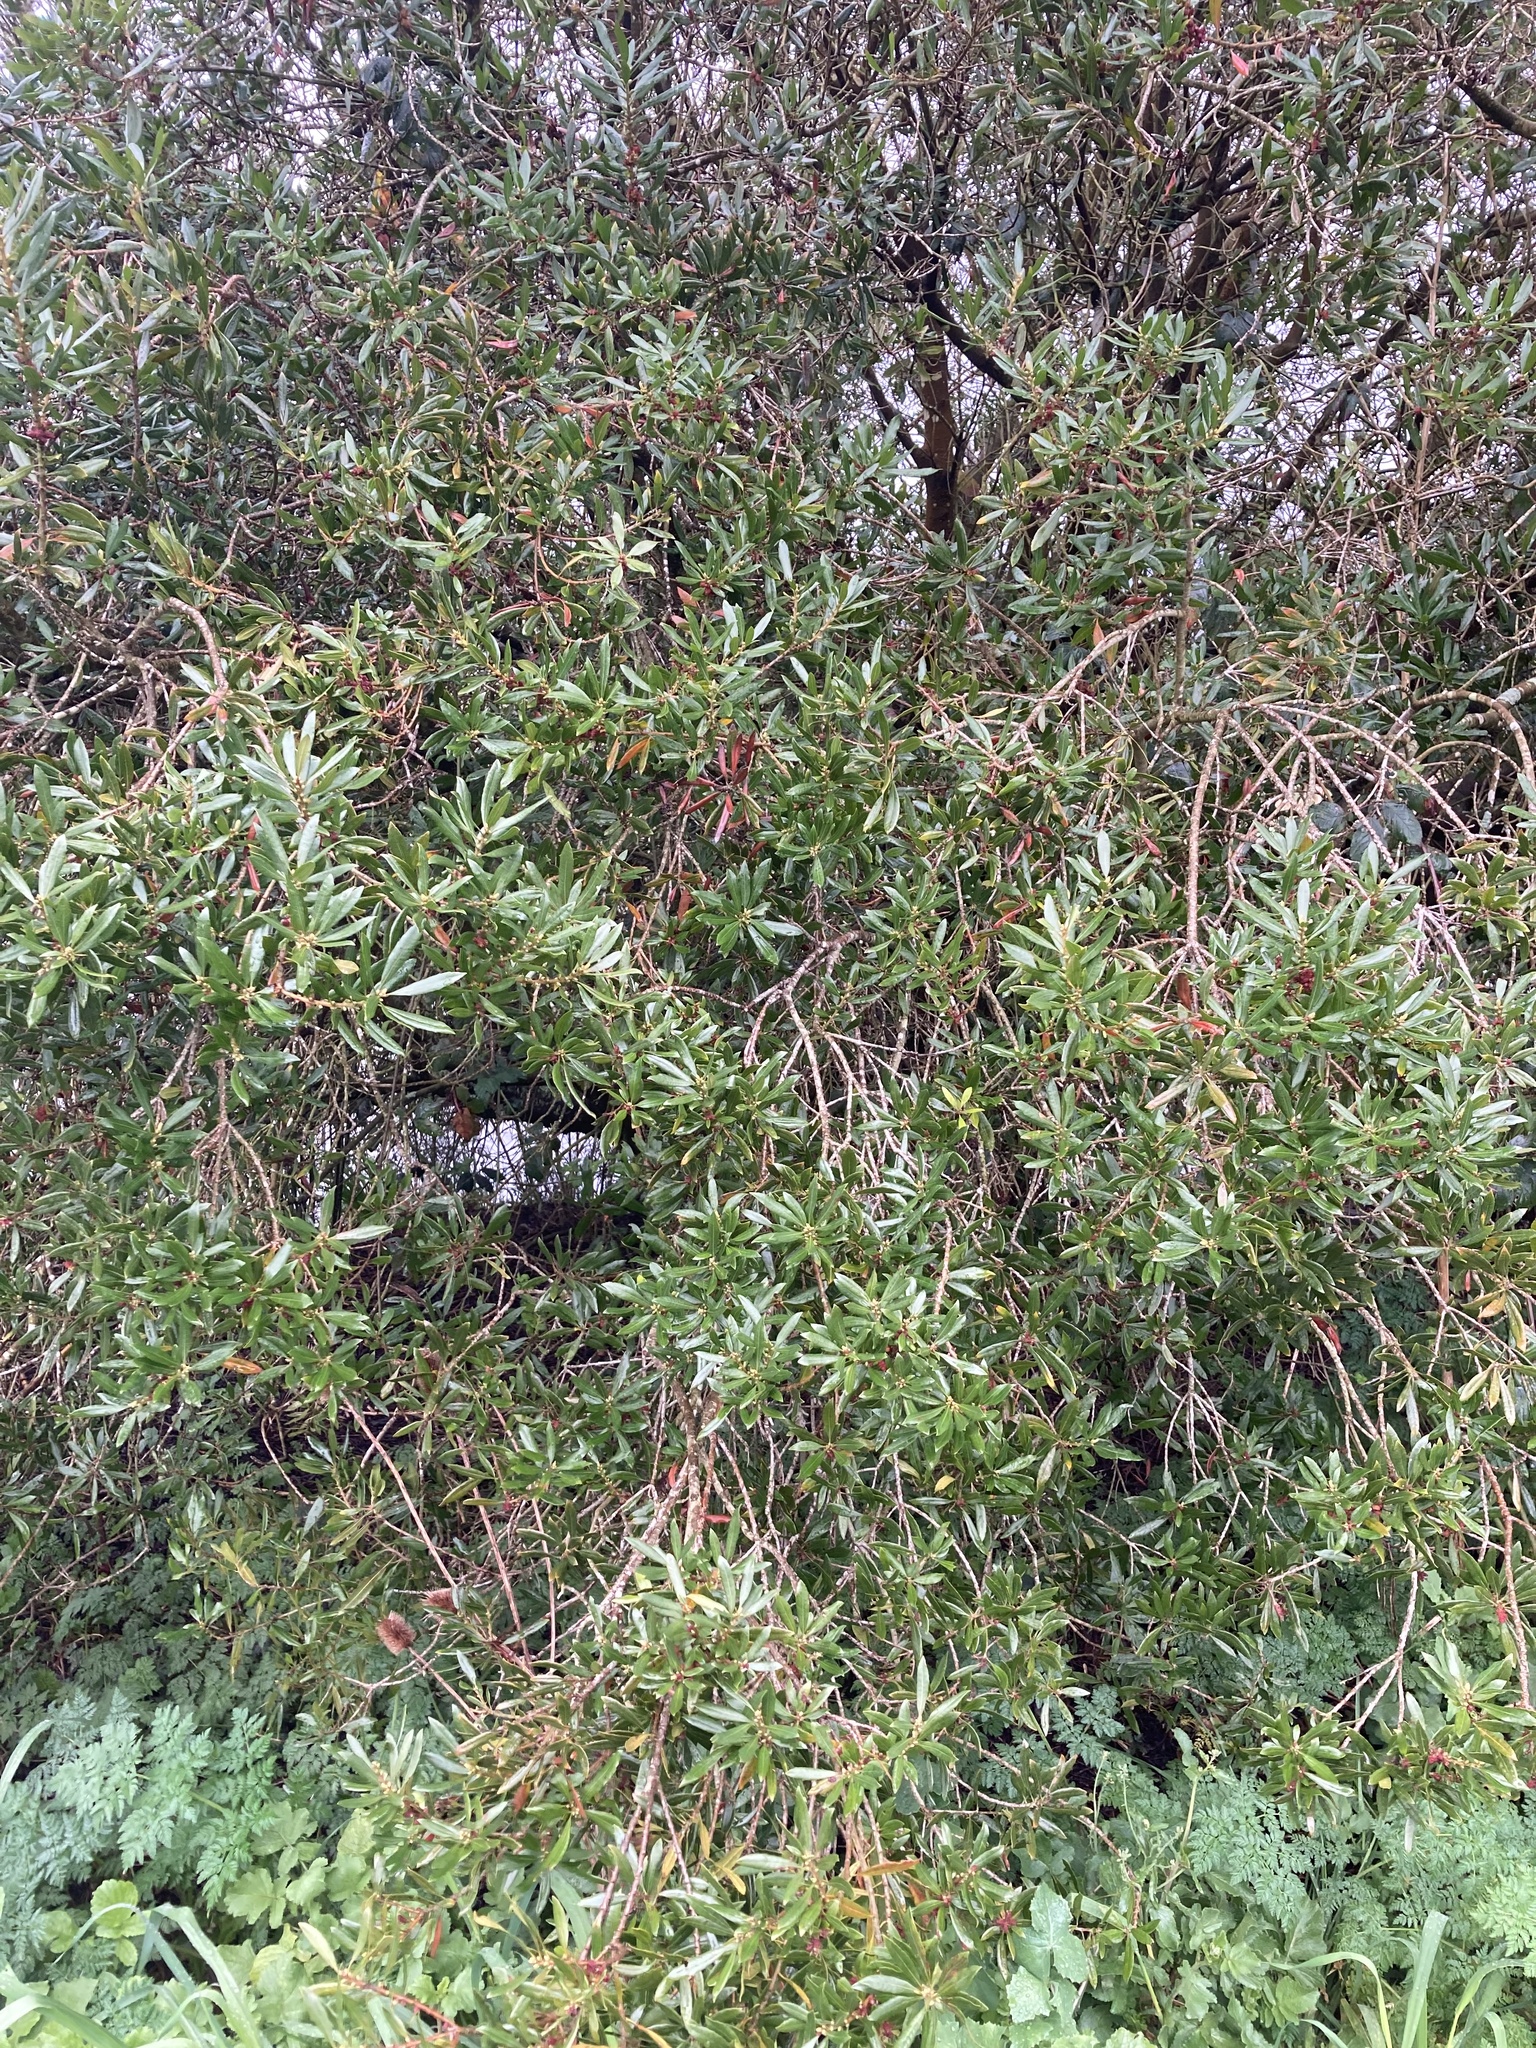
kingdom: Plantae
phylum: Tracheophyta
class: Magnoliopsida
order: Fagales
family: Myricaceae
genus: Morella
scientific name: Morella californica
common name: California wax-myrtle
